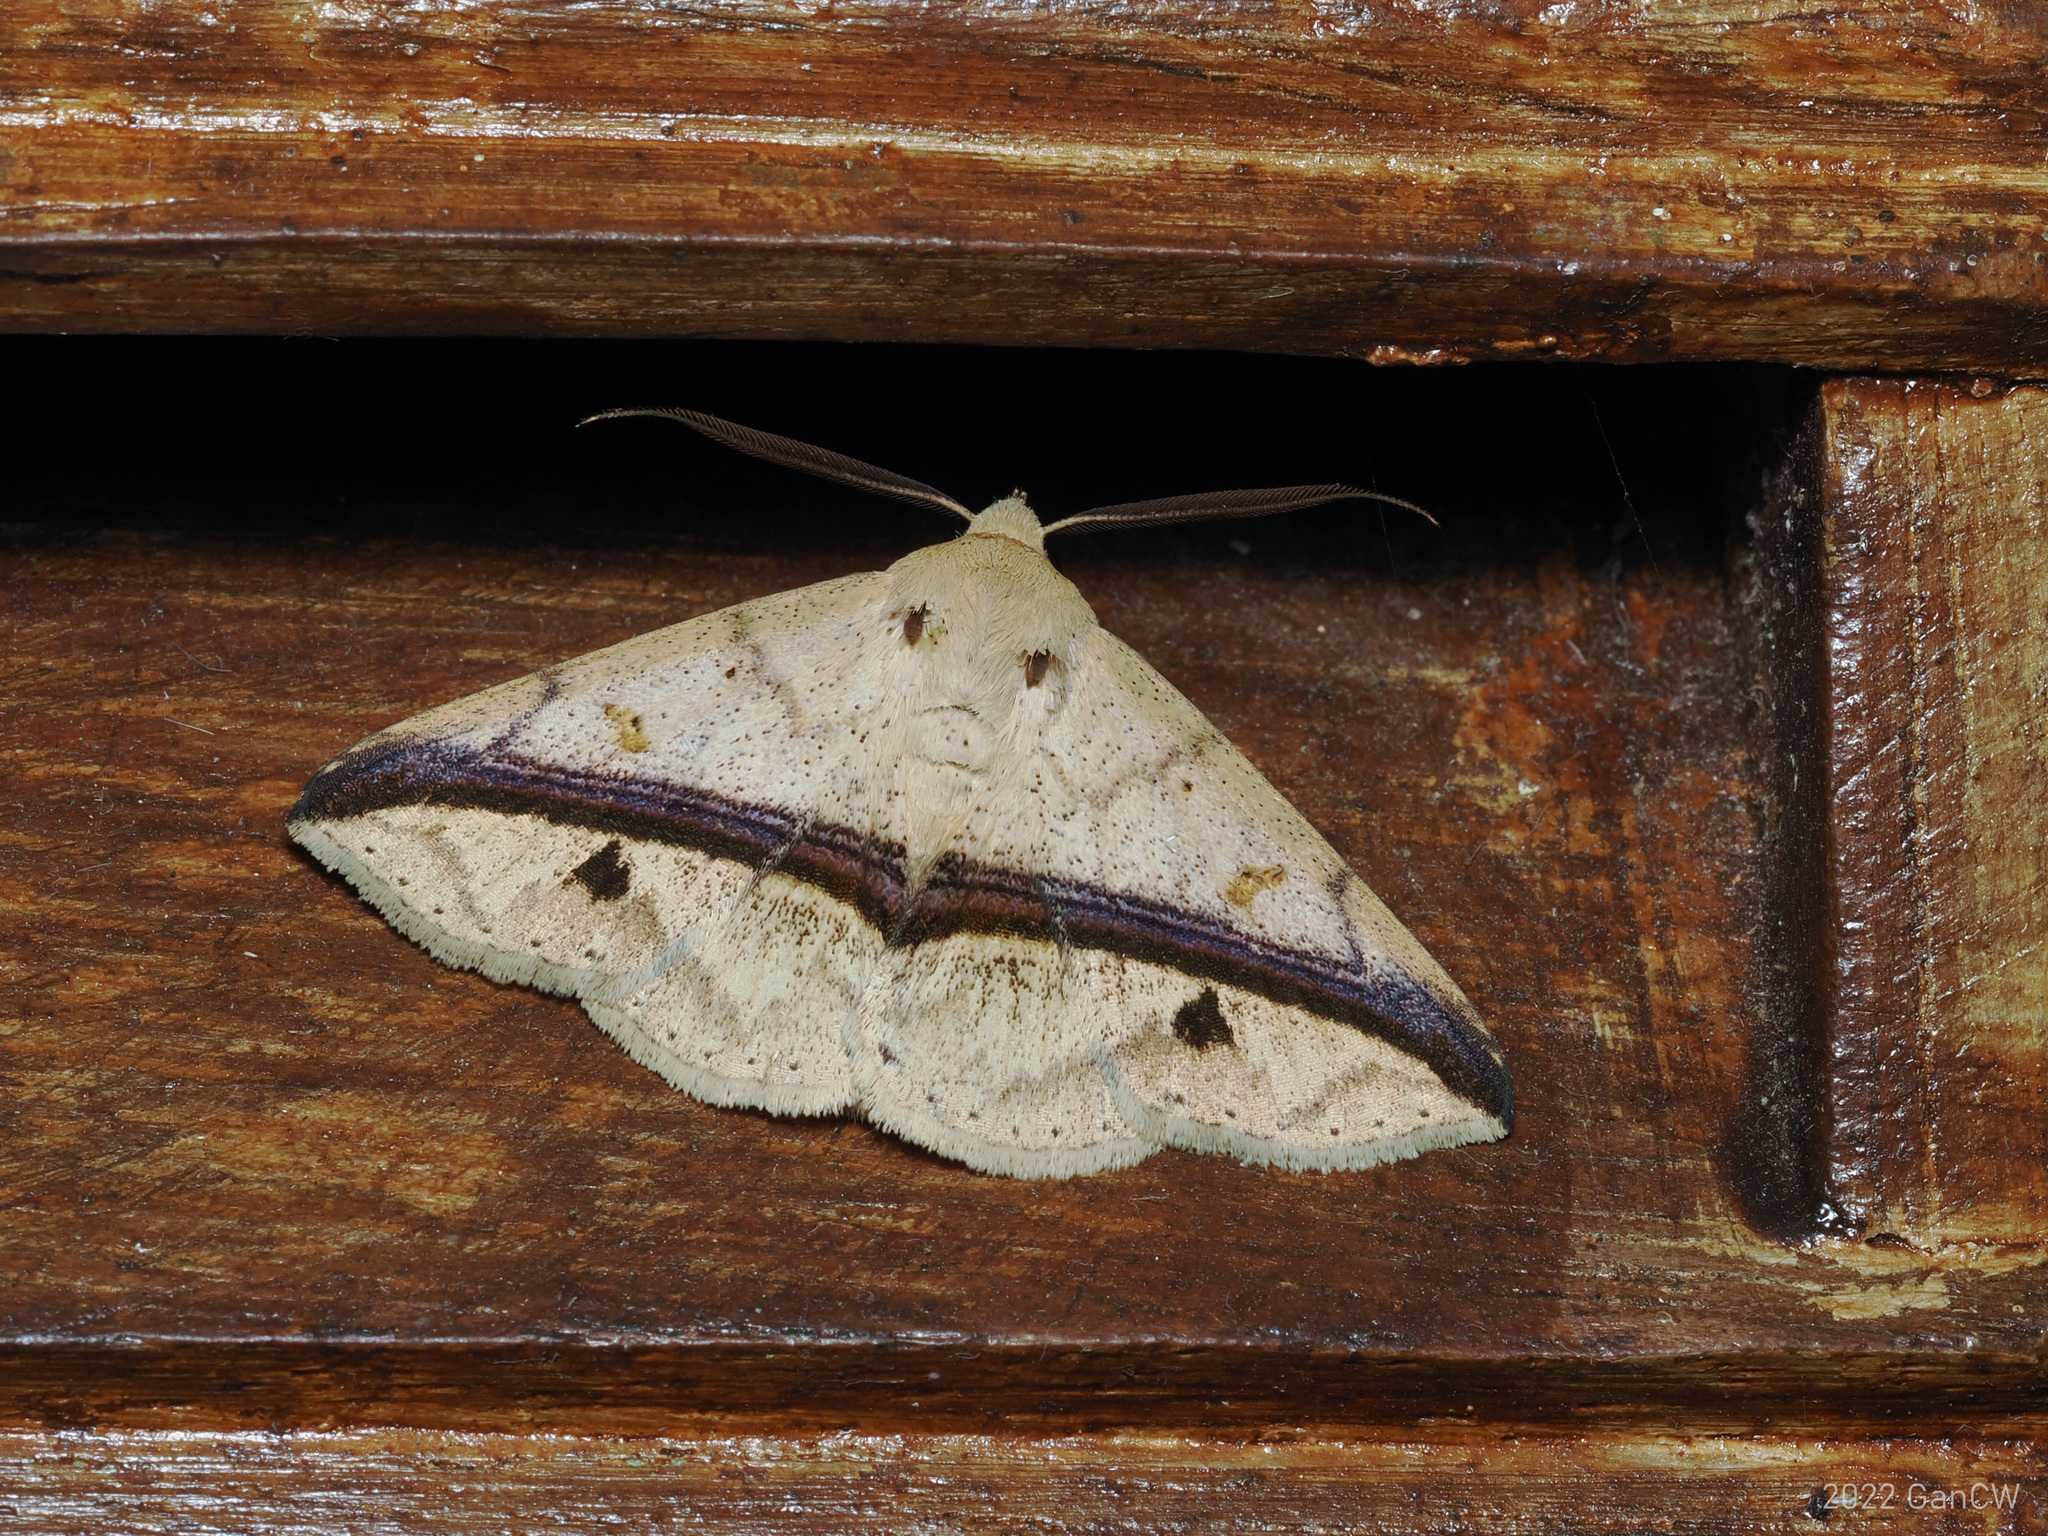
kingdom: Animalia
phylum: Arthropoda
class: Insecta
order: Lepidoptera
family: Erebidae
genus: Ugia
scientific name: Ugia eugrapha
